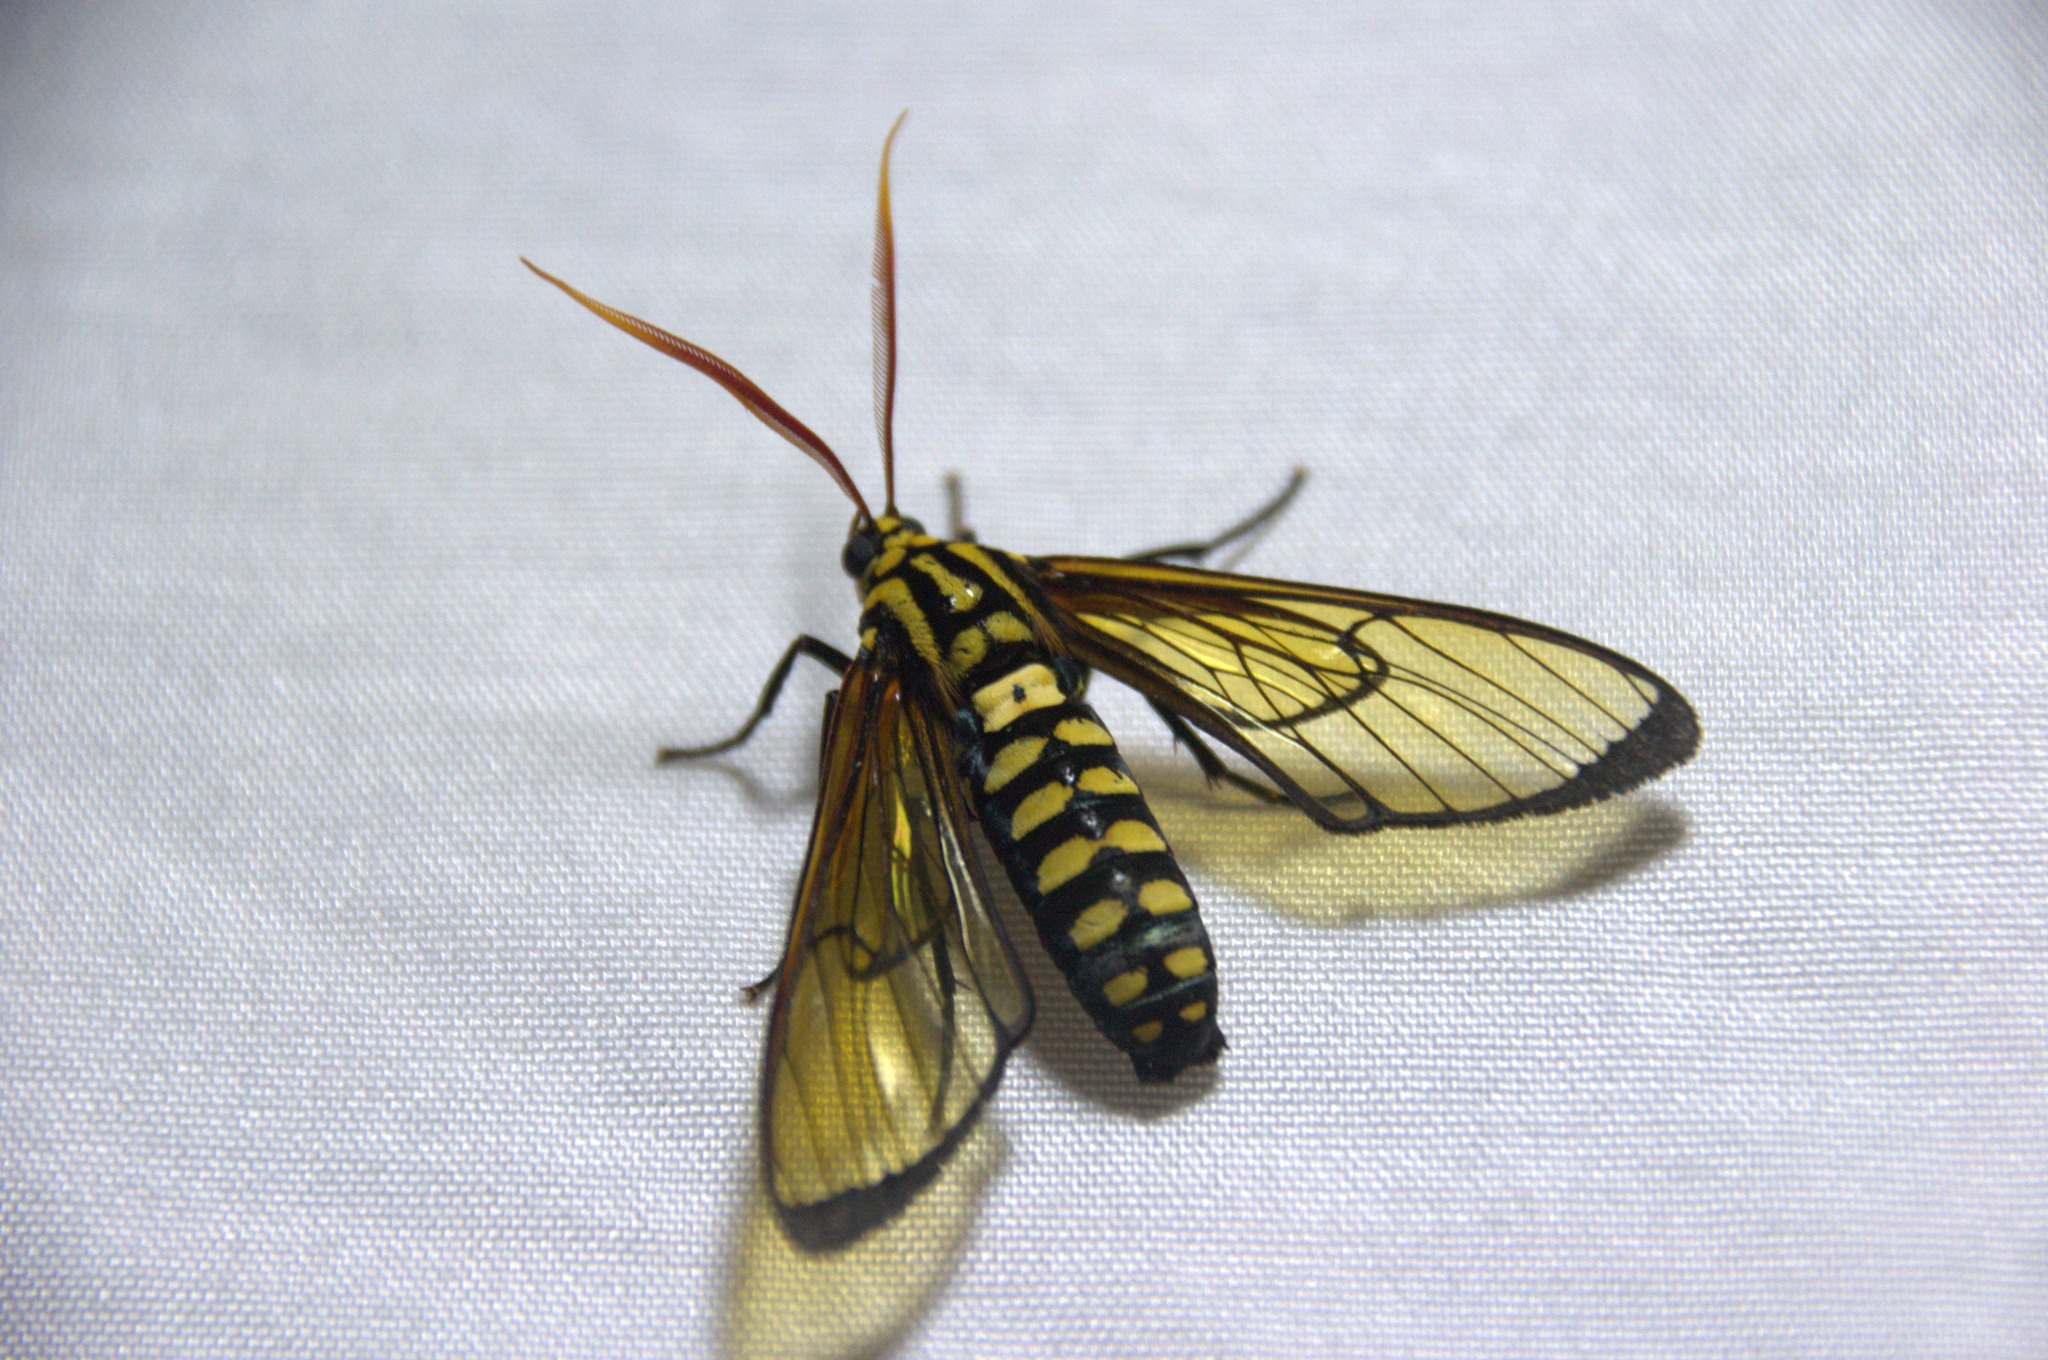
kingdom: Animalia
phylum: Arthropoda
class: Insecta
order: Lepidoptera
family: Erebidae
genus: Isanthrene
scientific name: Isanthrene pyrocera
